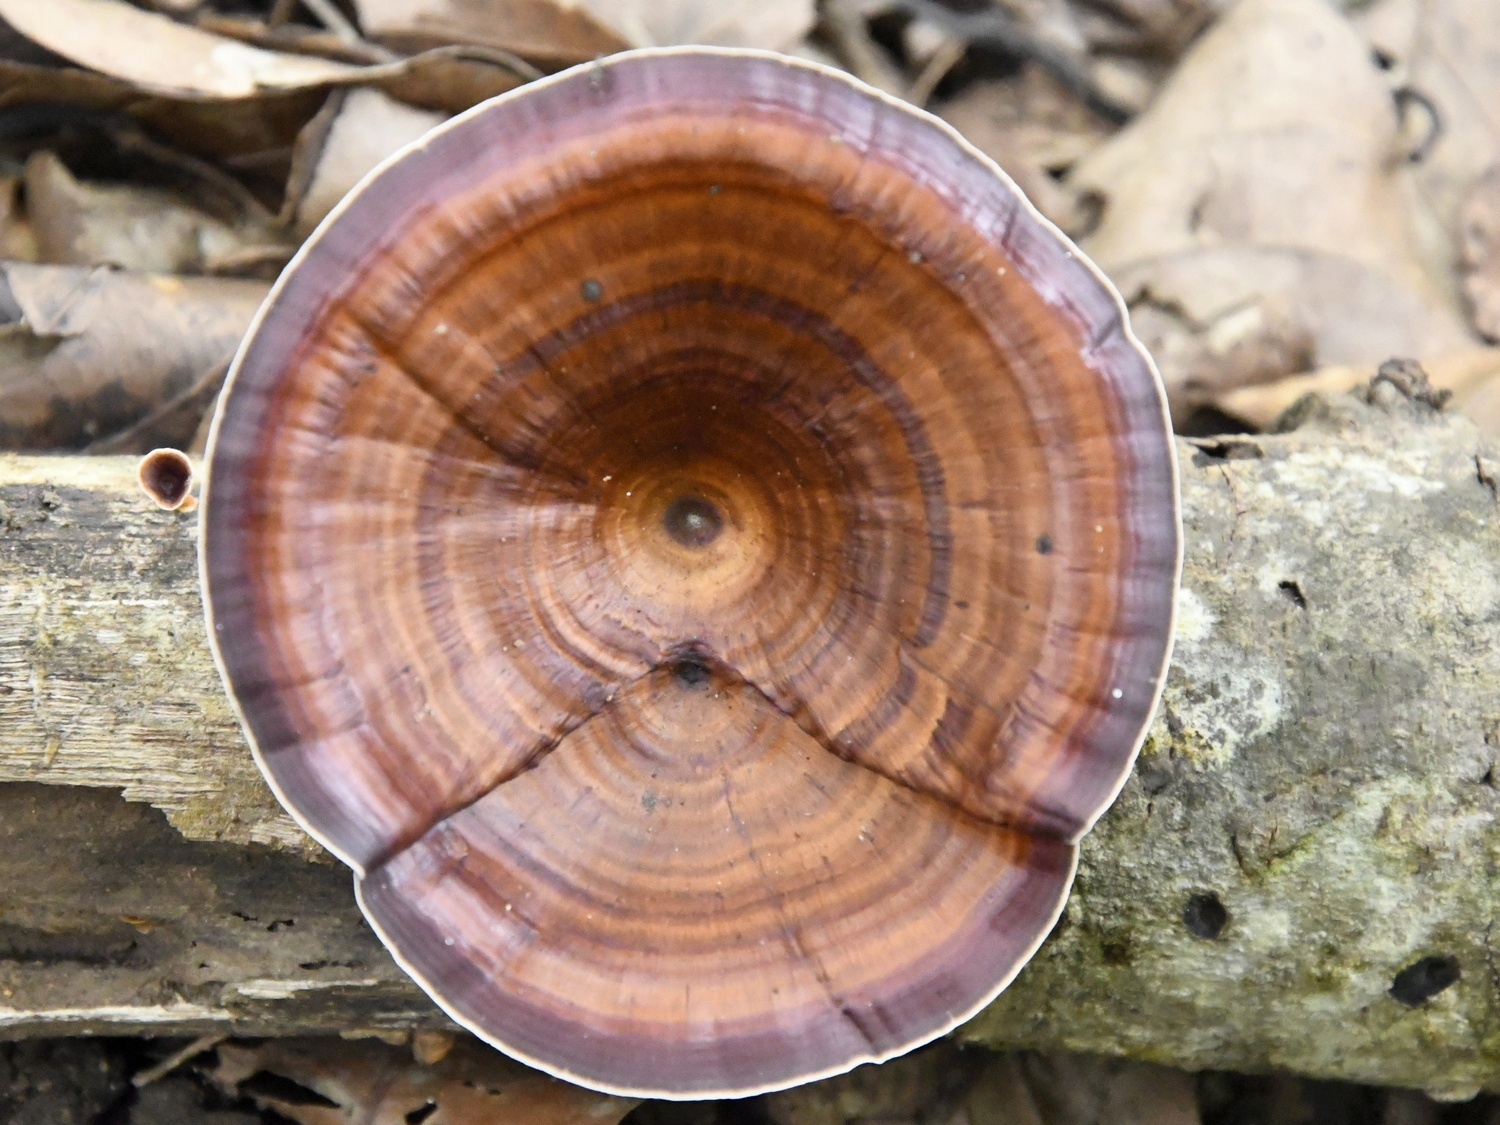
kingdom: Fungi
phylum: Basidiomycota
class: Agaricomycetes
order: Polyporales
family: Polyporaceae
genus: Microporus
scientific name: Microporus xanthopus
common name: Yellow-stemmed micropore
